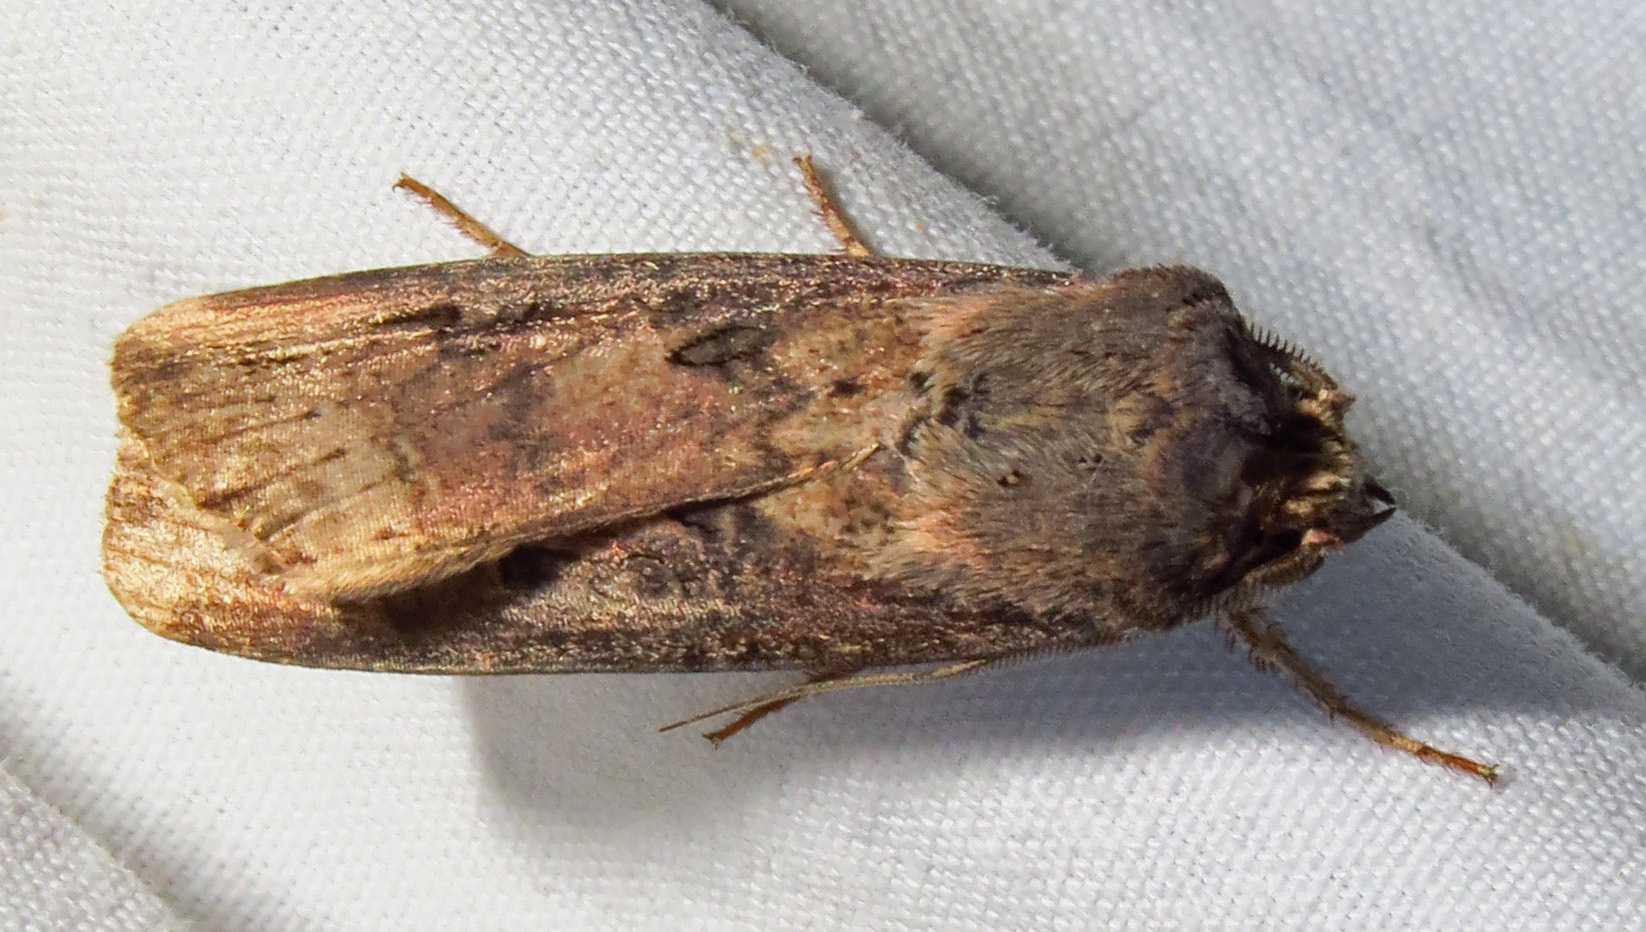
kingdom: Animalia
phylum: Arthropoda
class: Insecta
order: Lepidoptera
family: Noctuidae
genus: Agrotis
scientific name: Agrotis ipsilon
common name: Dark sword-grass
